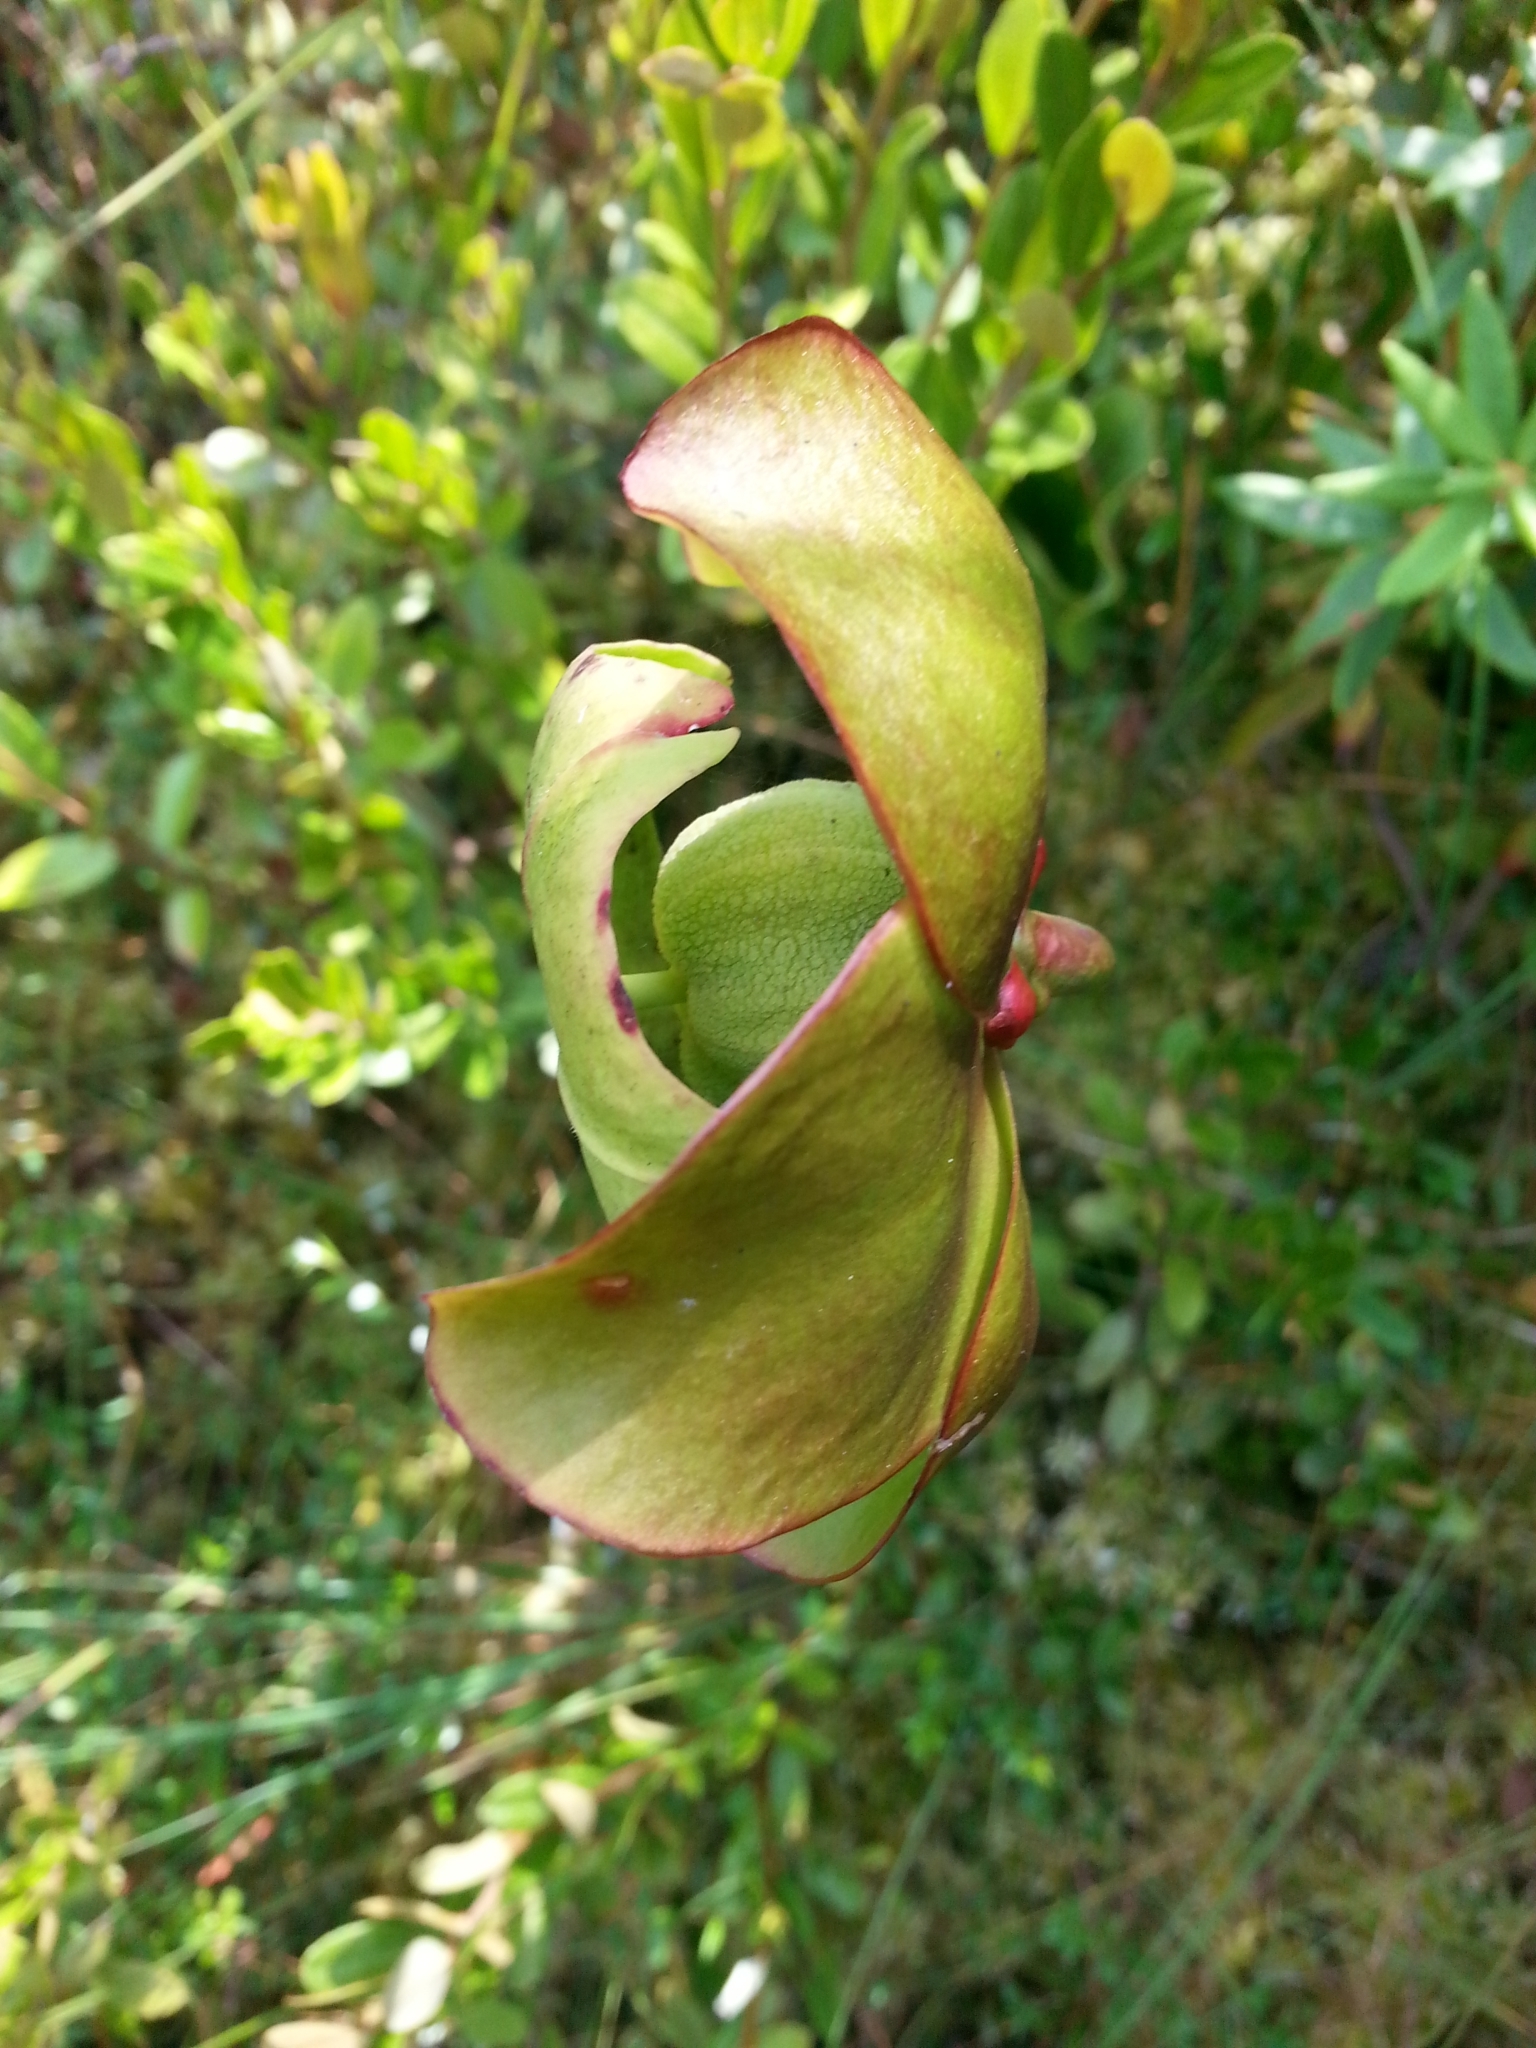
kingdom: Plantae
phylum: Tracheophyta
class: Magnoliopsida
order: Ericales
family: Sarraceniaceae
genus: Sarracenia
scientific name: Sarracenia purpurea
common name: Pitcherplant
